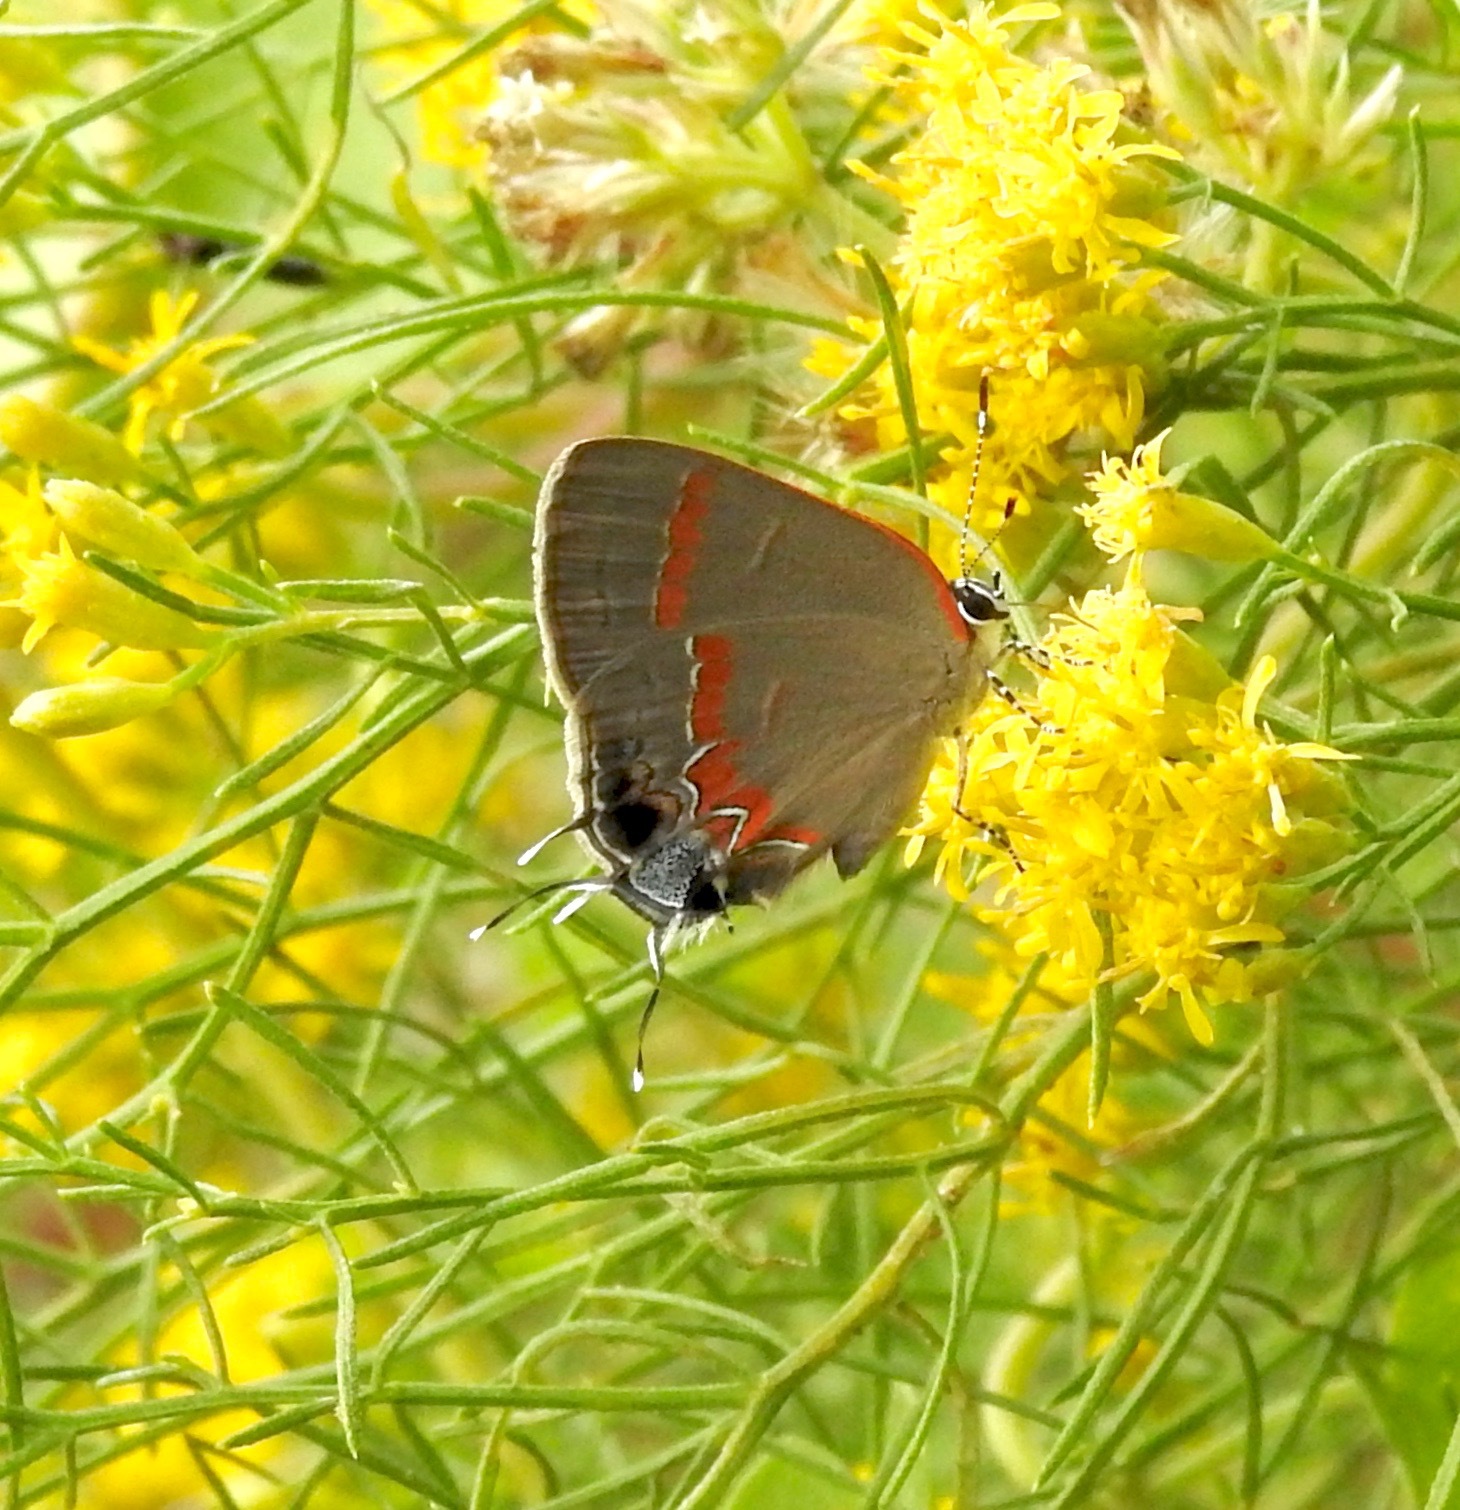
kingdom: Animalia
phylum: Arthropoda
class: Insecta
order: Lepidoptera
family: Lycaenidae
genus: Calycopis
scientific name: Calycopis cecrops
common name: Red-banded hairstreak
